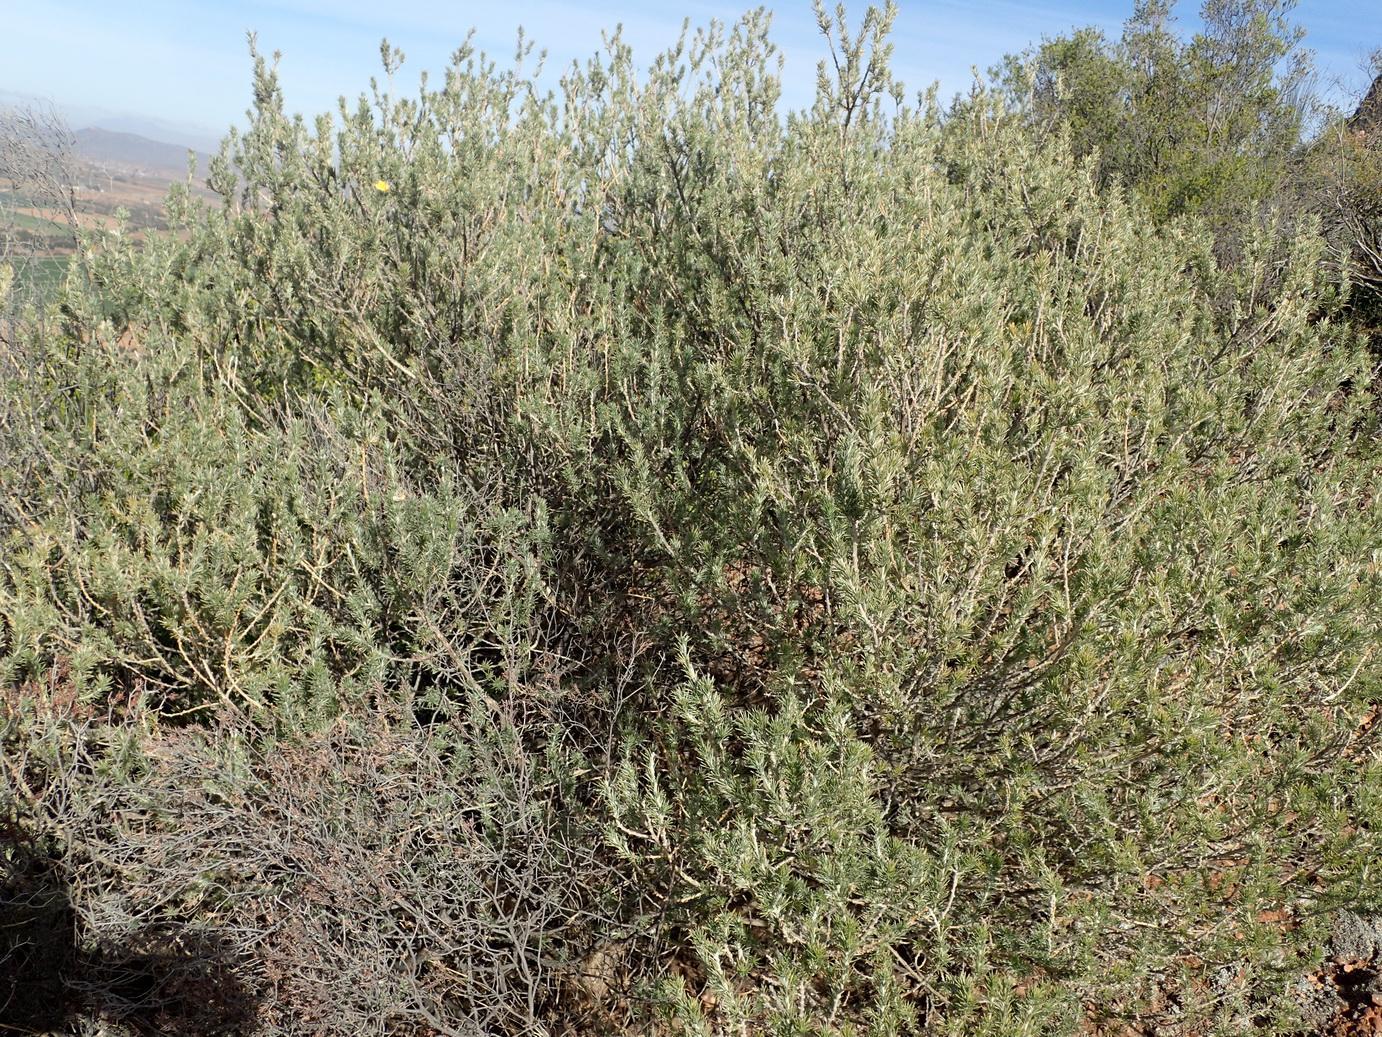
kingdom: Plantae
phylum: Tracheophyta
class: Magnoliopsida
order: Fabales
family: Fabaceae
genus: Aspalathus
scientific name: Aspalathus hystrix
